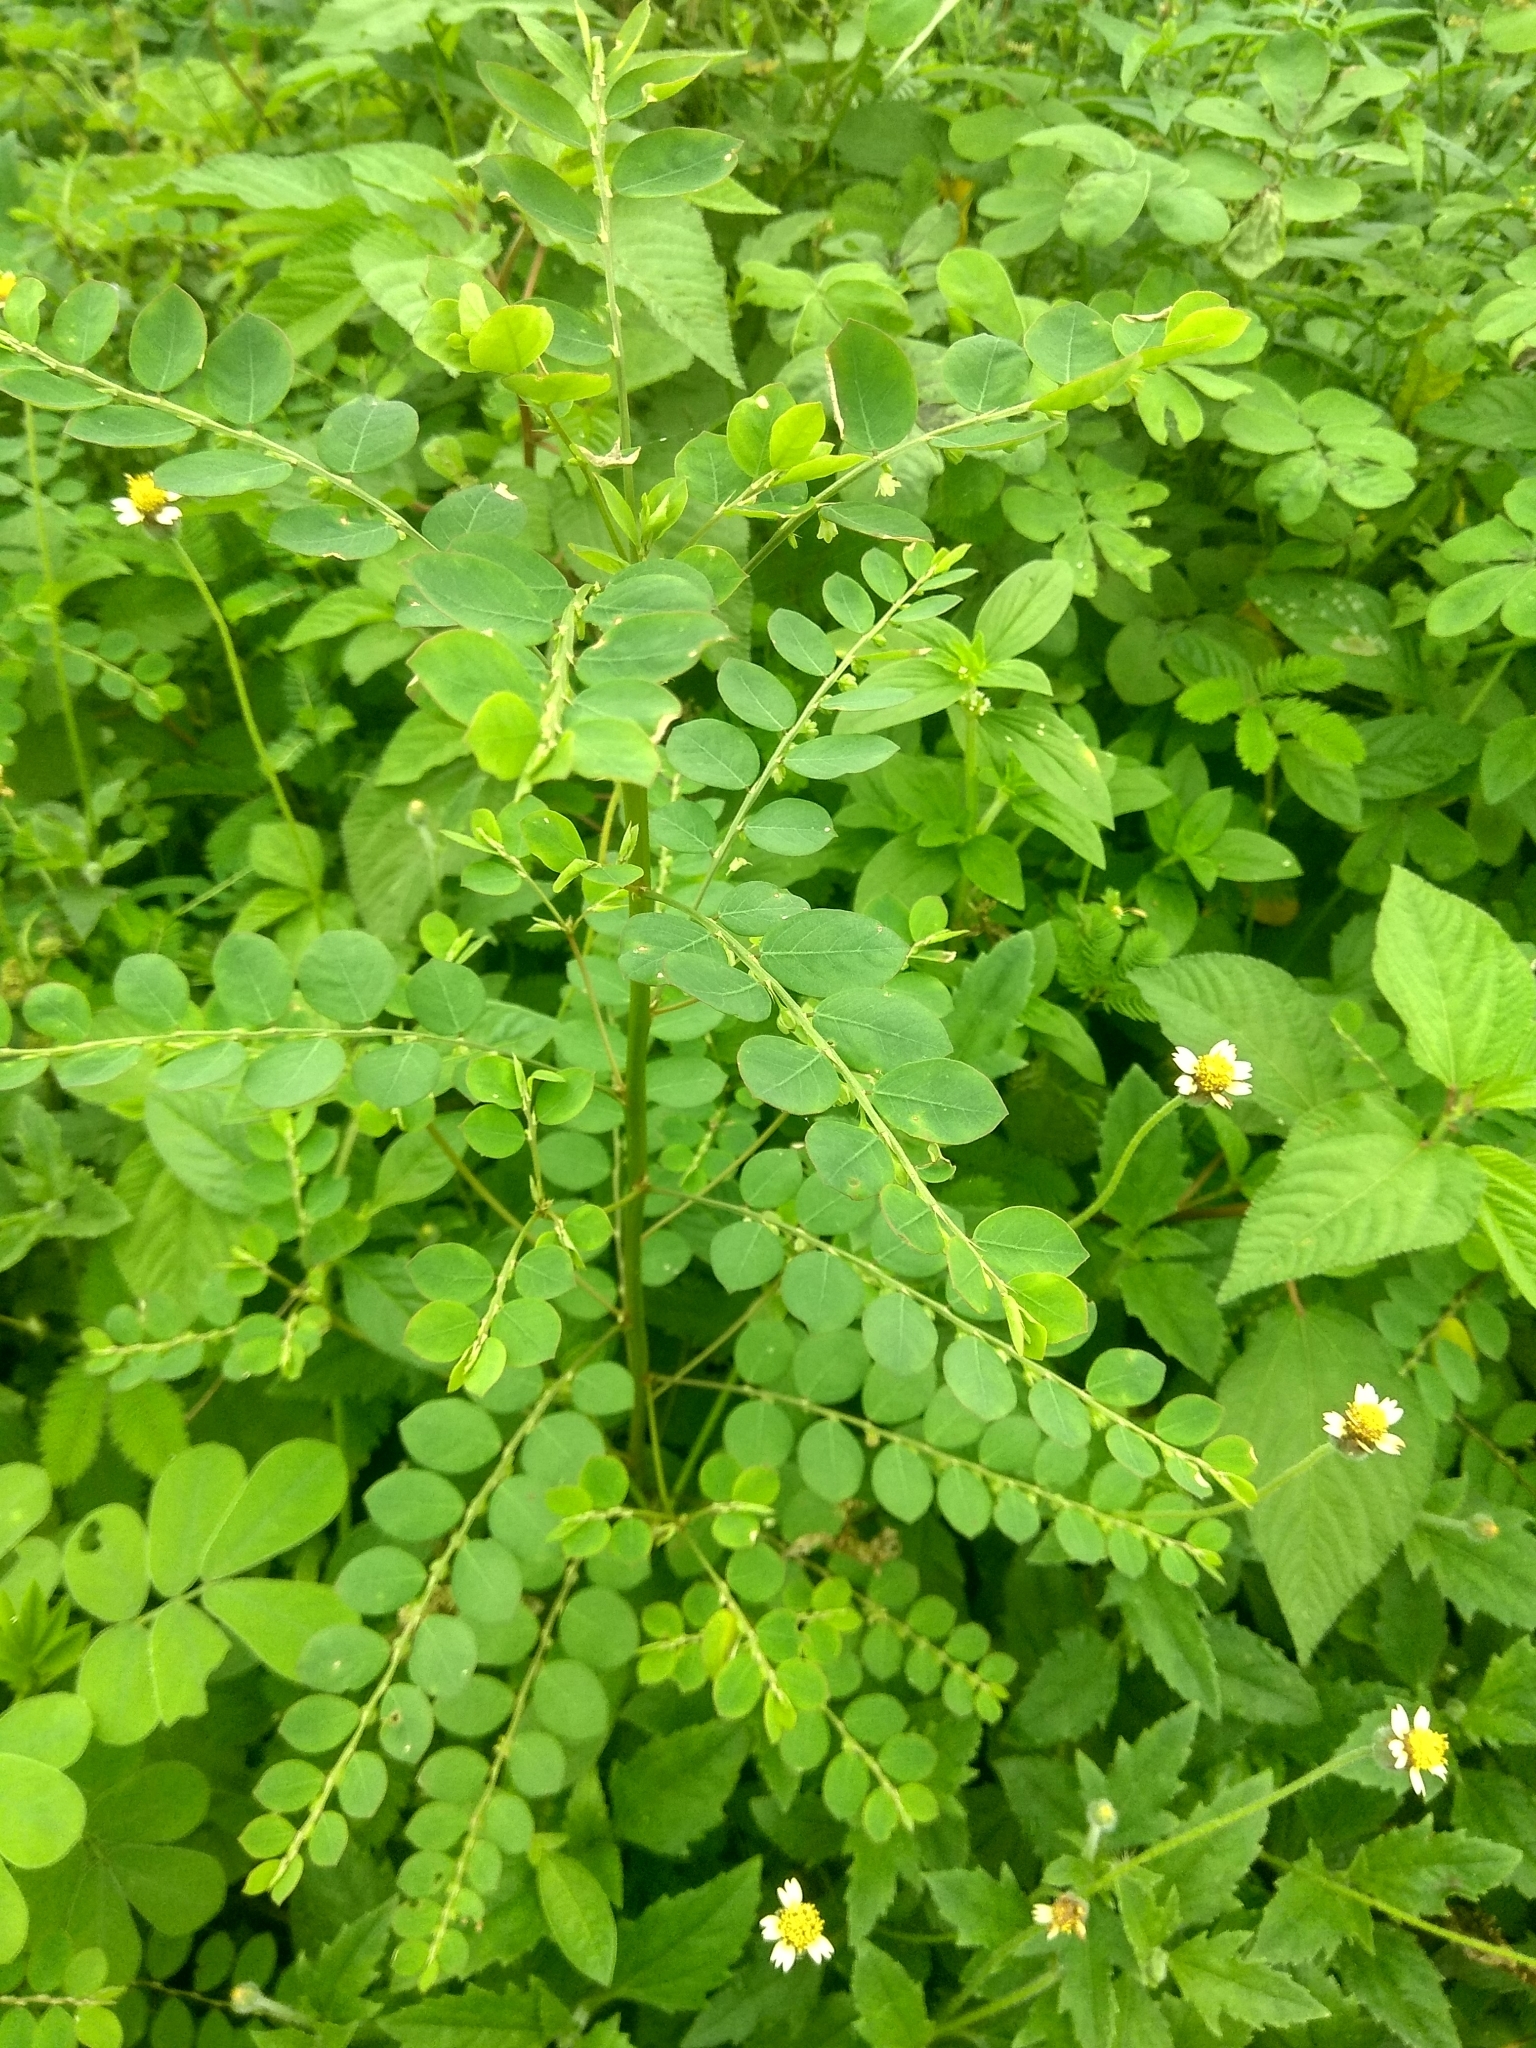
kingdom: Plantae
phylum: Tracheophyta
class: Magnoliopsida
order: Malpighiales
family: Phyllanthaceae
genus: Phyllanthus
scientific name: Phyllanthus urinaria
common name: Chamber bitter
